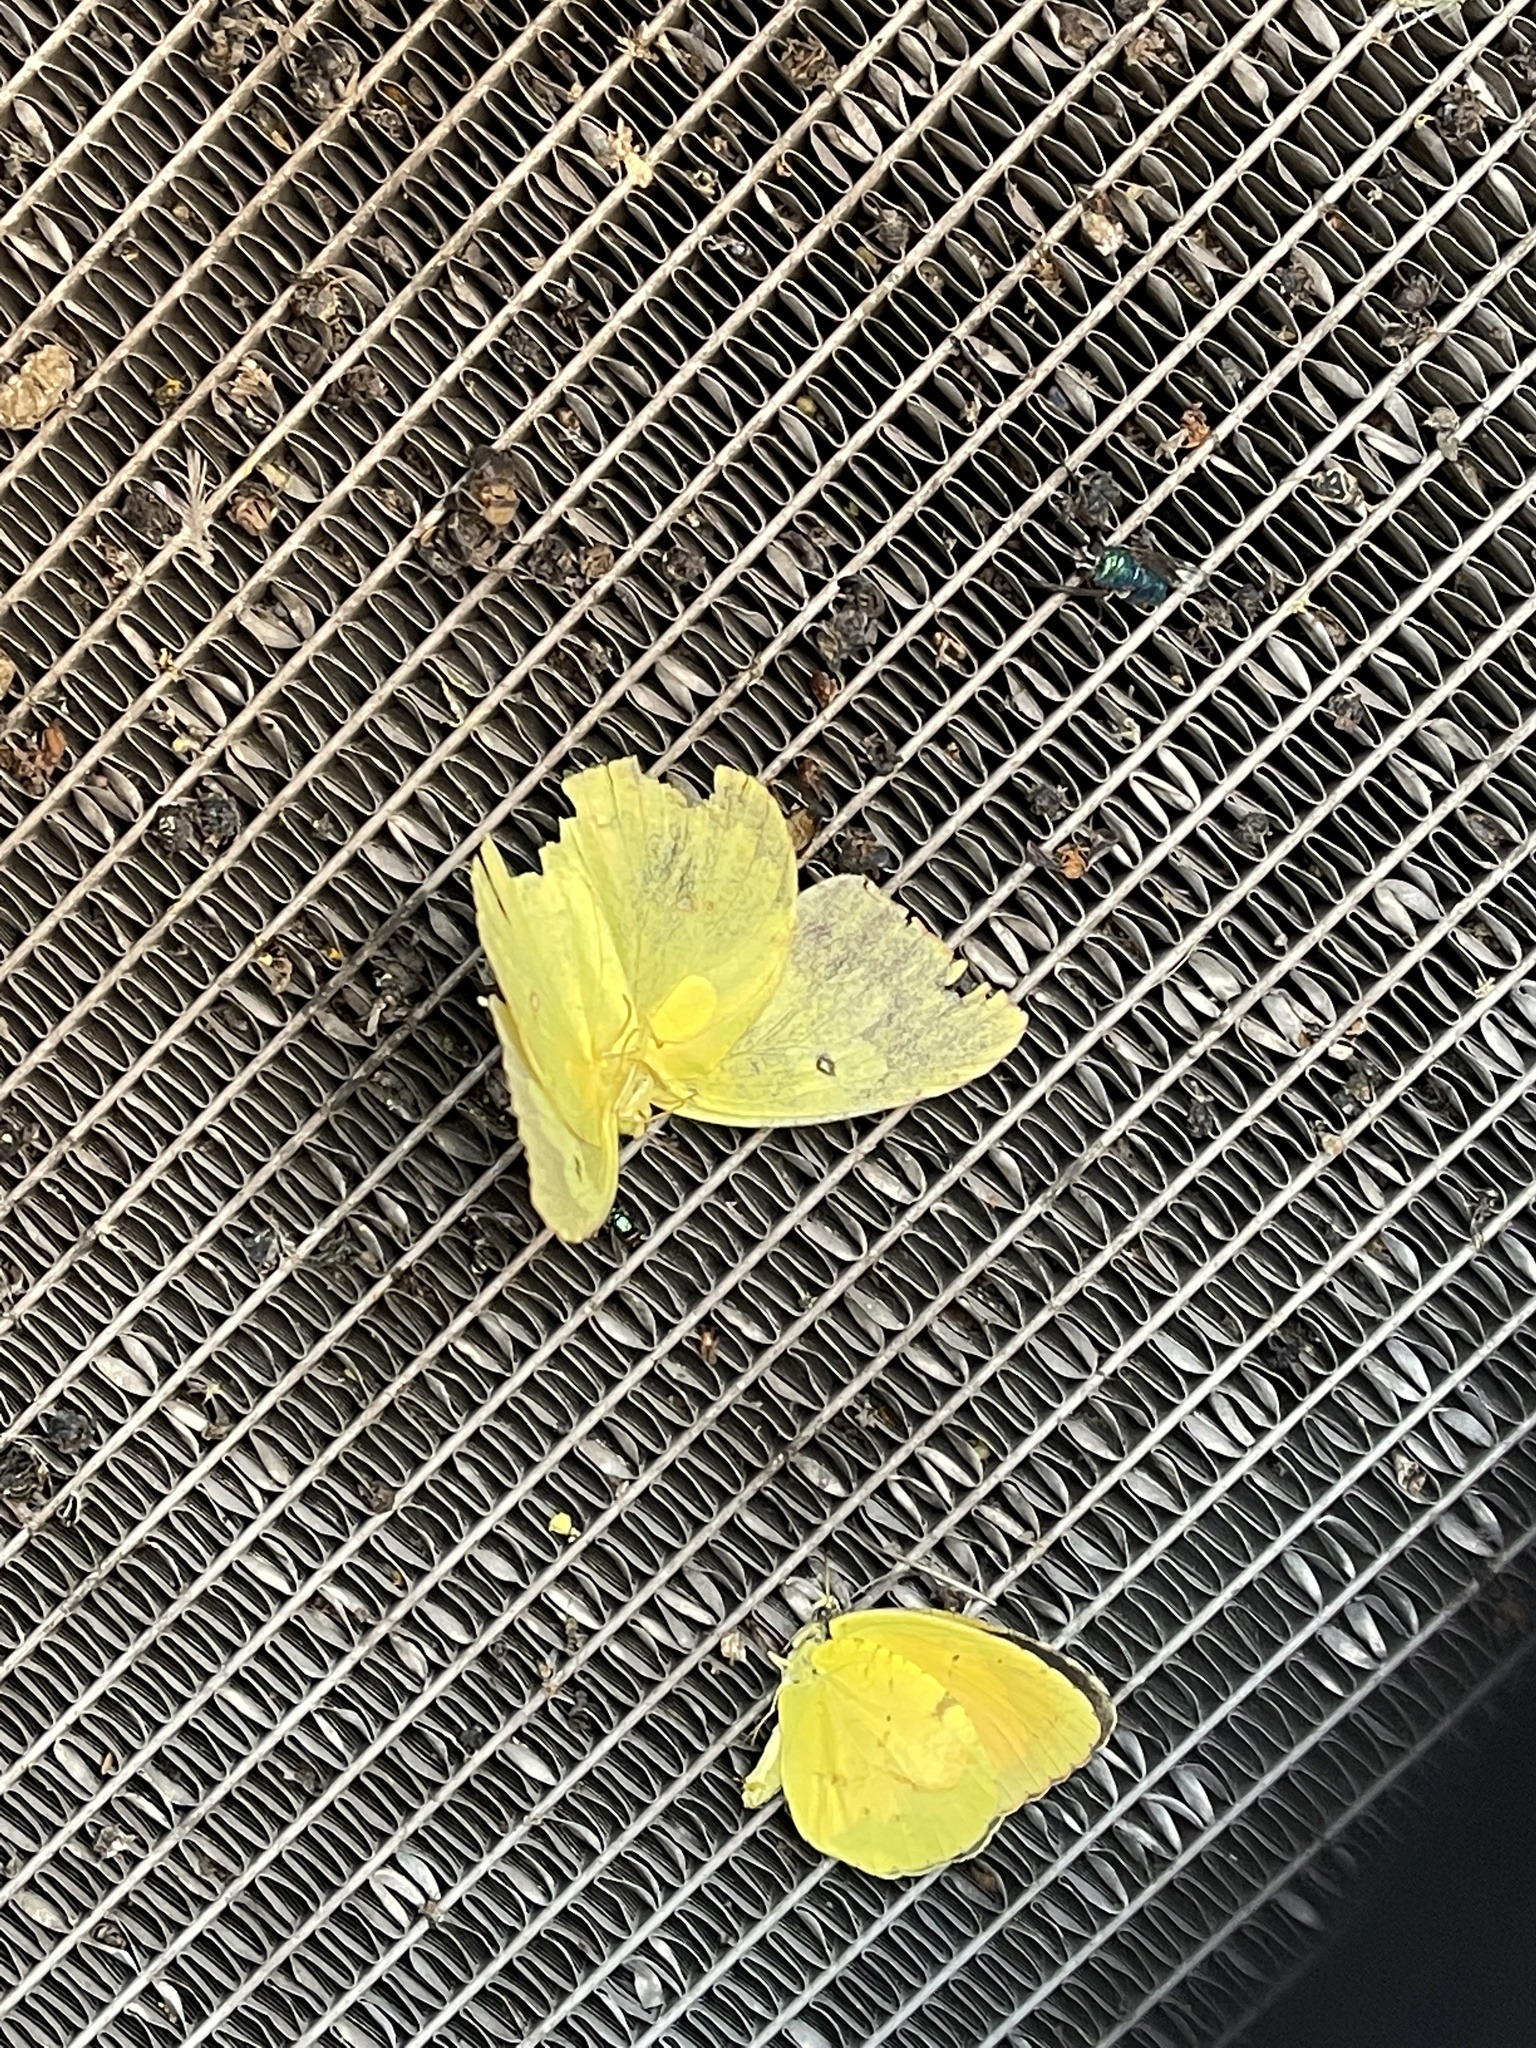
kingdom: Animalia
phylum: Arthropoda
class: Insecta
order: Lepidoptera
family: Pieridae
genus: Abaeis
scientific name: Abaeis nicippe
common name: Sleepy orange
